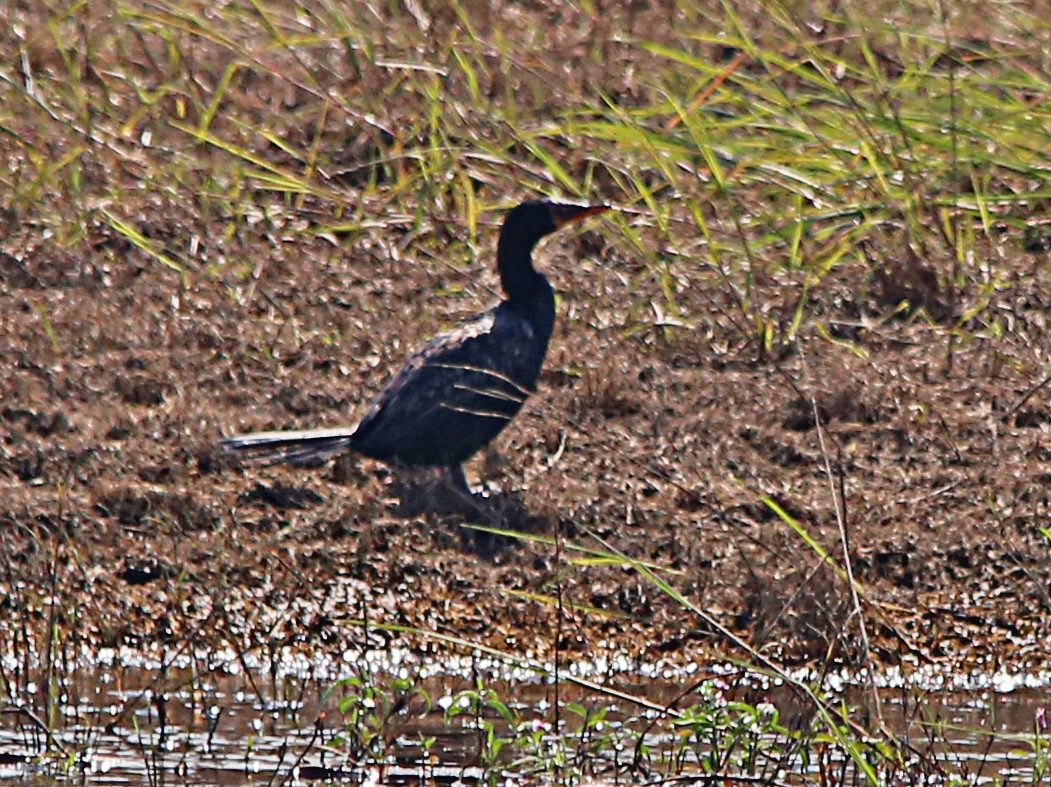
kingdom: Animalia
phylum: Chordata
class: Aves
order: Suliformes
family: Phalacrocoracidae
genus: Microcarbo
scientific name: Microcarbo africanus
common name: Long-tailed cormorant
